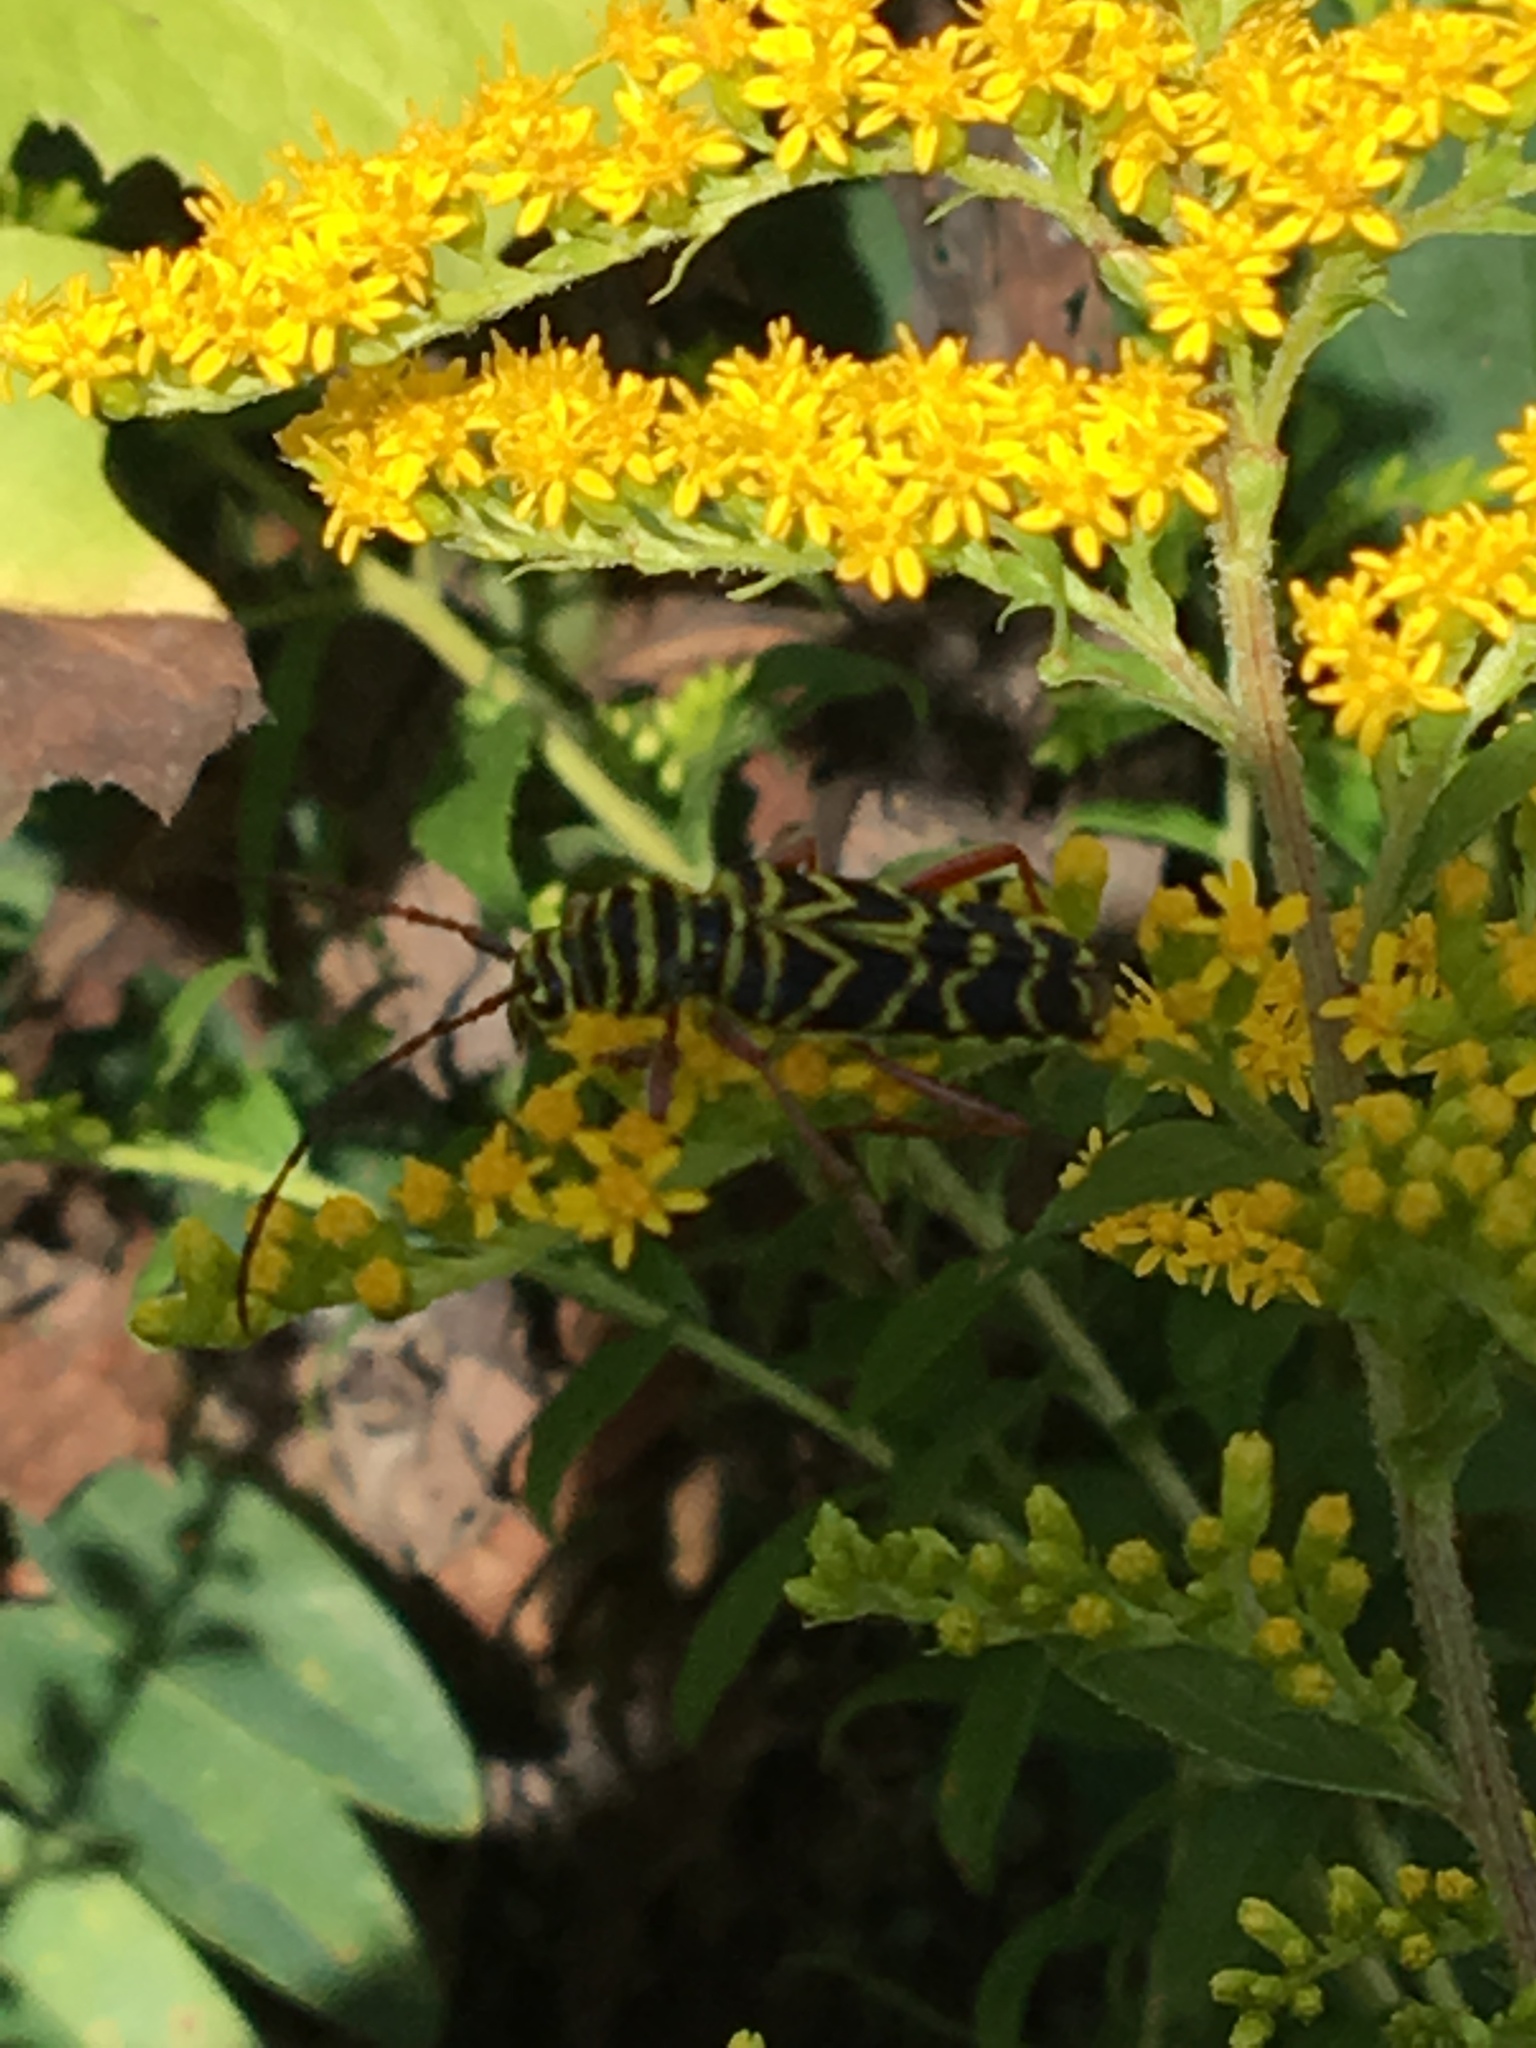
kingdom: Animalia
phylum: Arthropoda
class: Insecta
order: Coleoptera
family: Cerambycidae
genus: Megacyllene
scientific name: Megacyllene robiniae
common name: Locust borer
